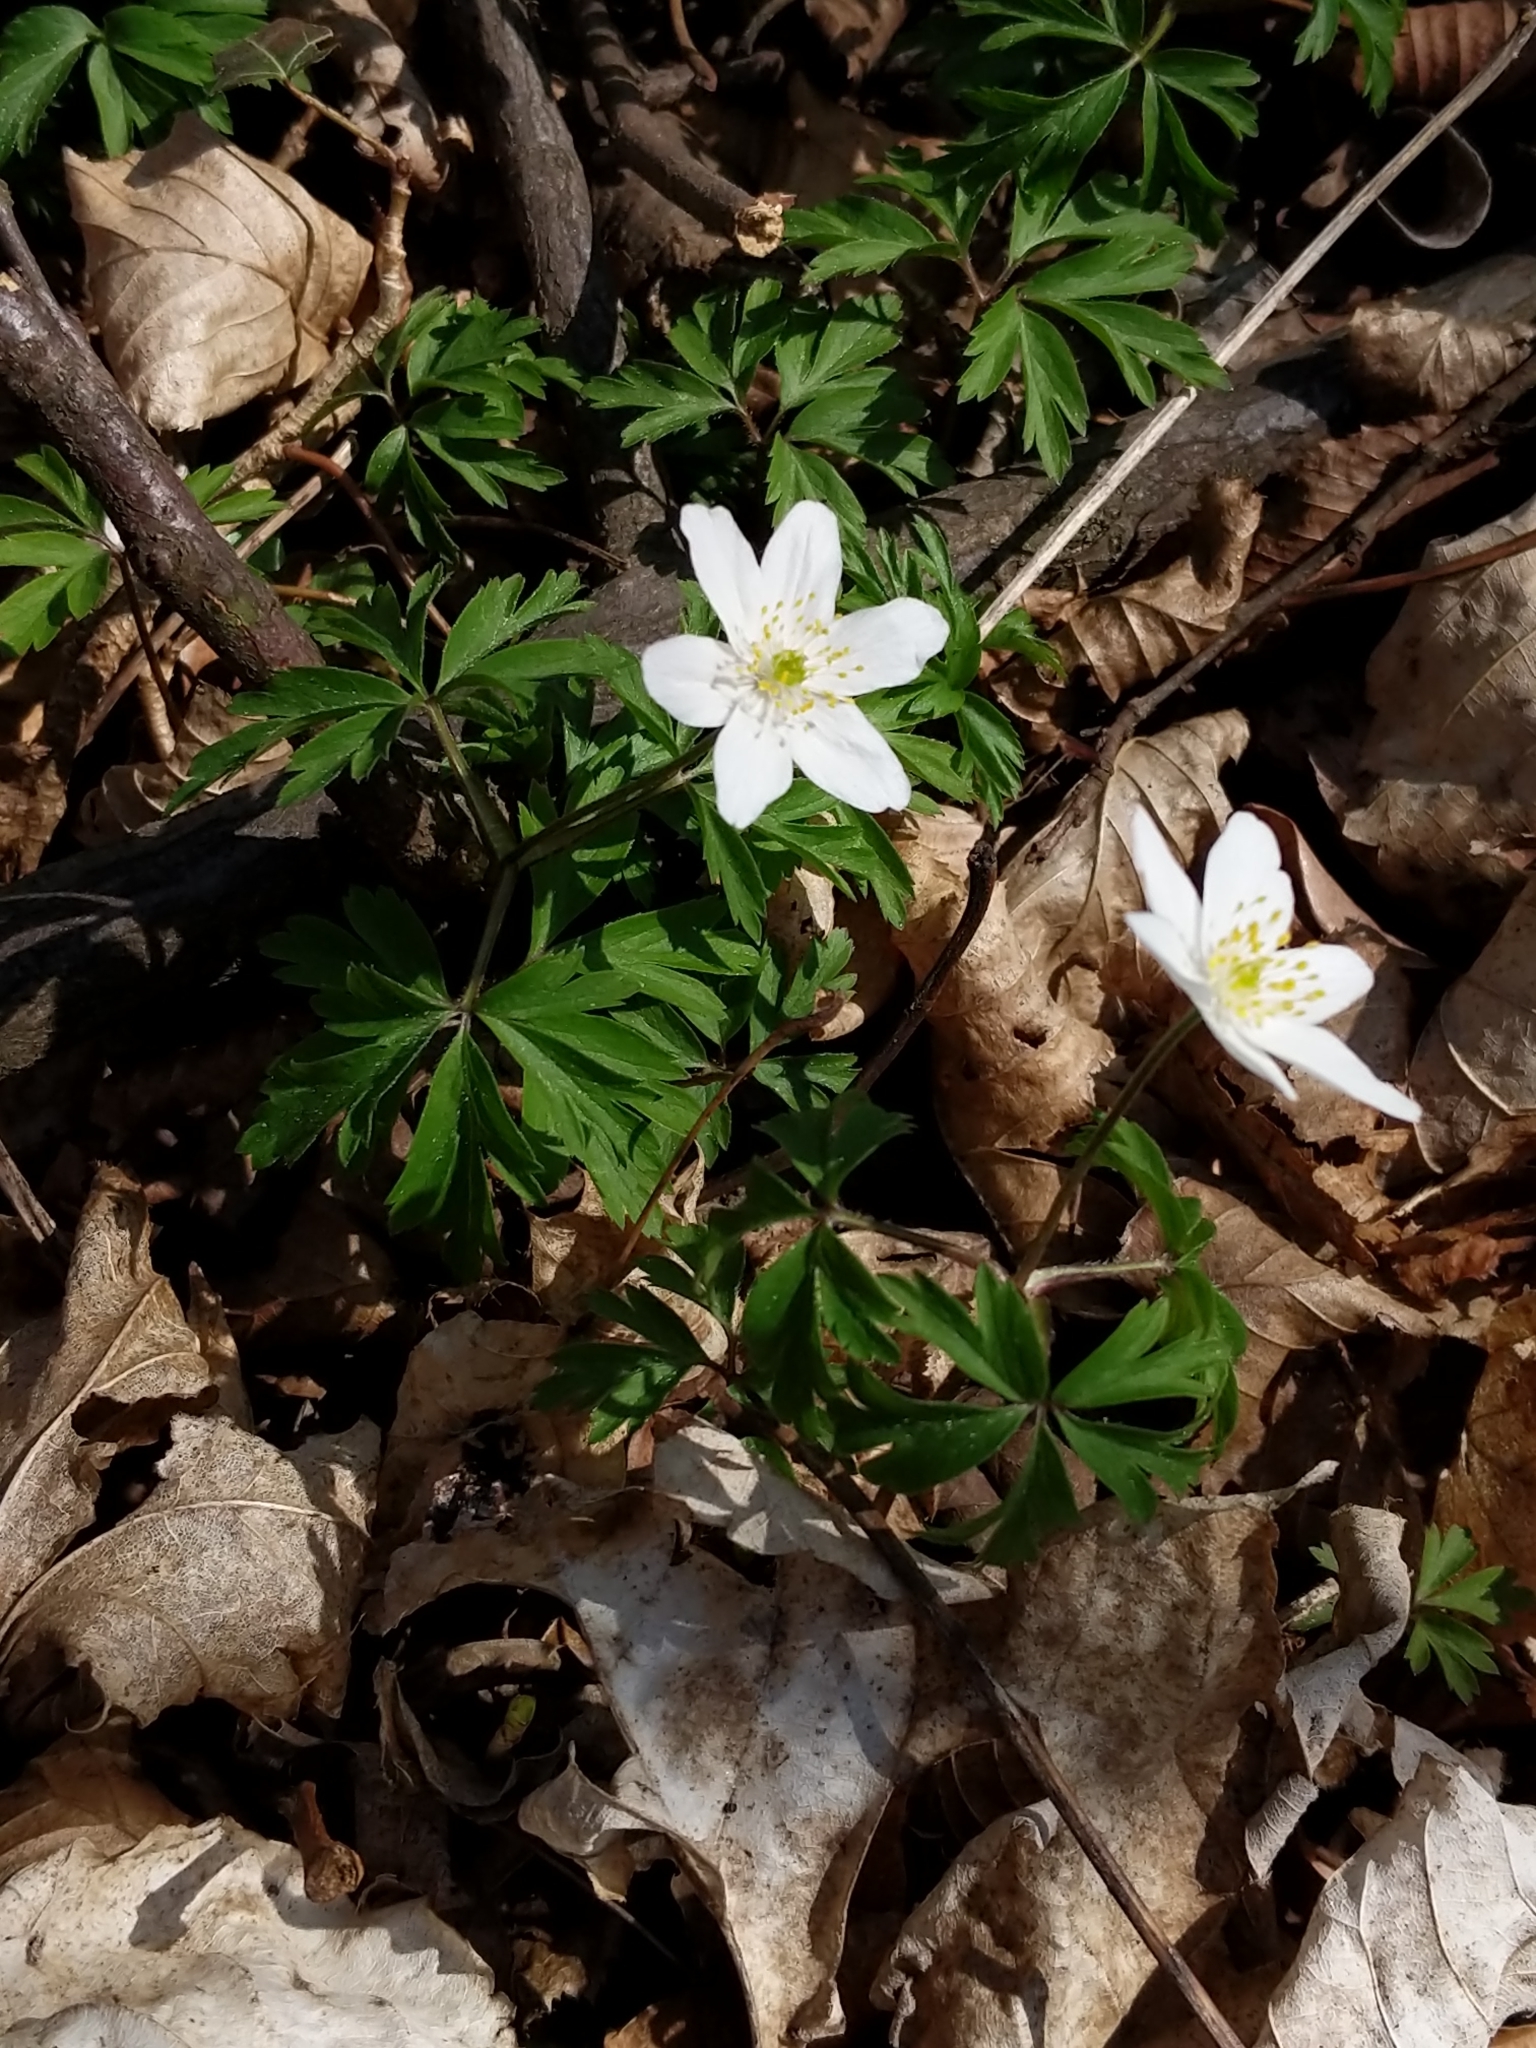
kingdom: Plantae
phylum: Tracheophyta
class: Magnoliopsida
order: Ranunculales
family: Ranunculaceae
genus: Anemone
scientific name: Anemone nemorosa
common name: Wood anemone
